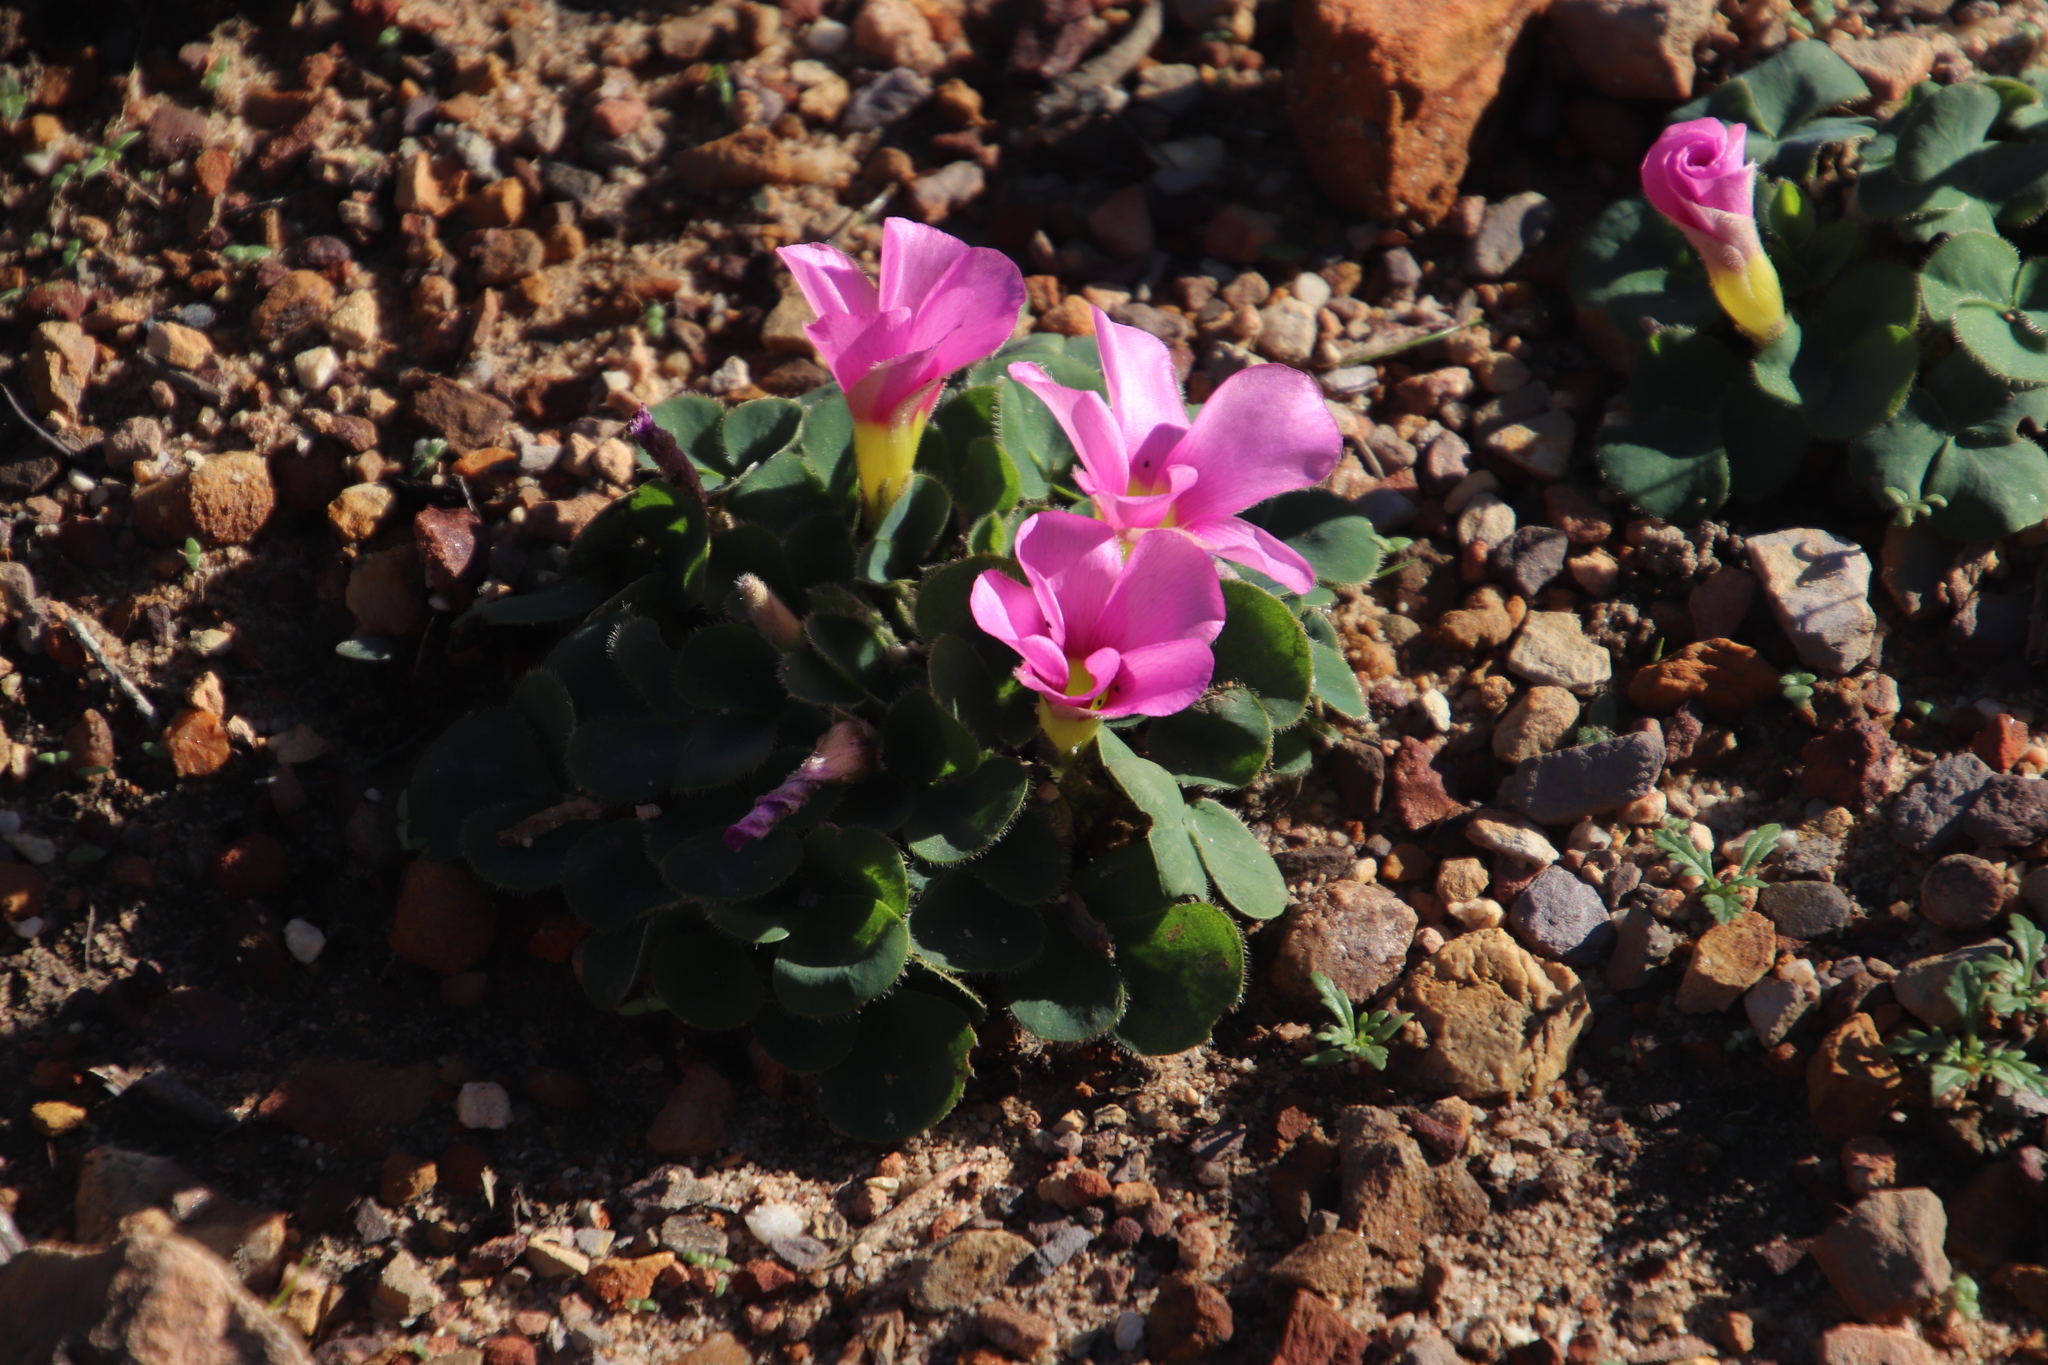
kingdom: Plantae
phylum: Tracheophyta
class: Magnoliopsida
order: Oxalidales
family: Oxalidaceae
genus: Oxalis
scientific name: Oxalis purpurea
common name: Purple woodsorrel
